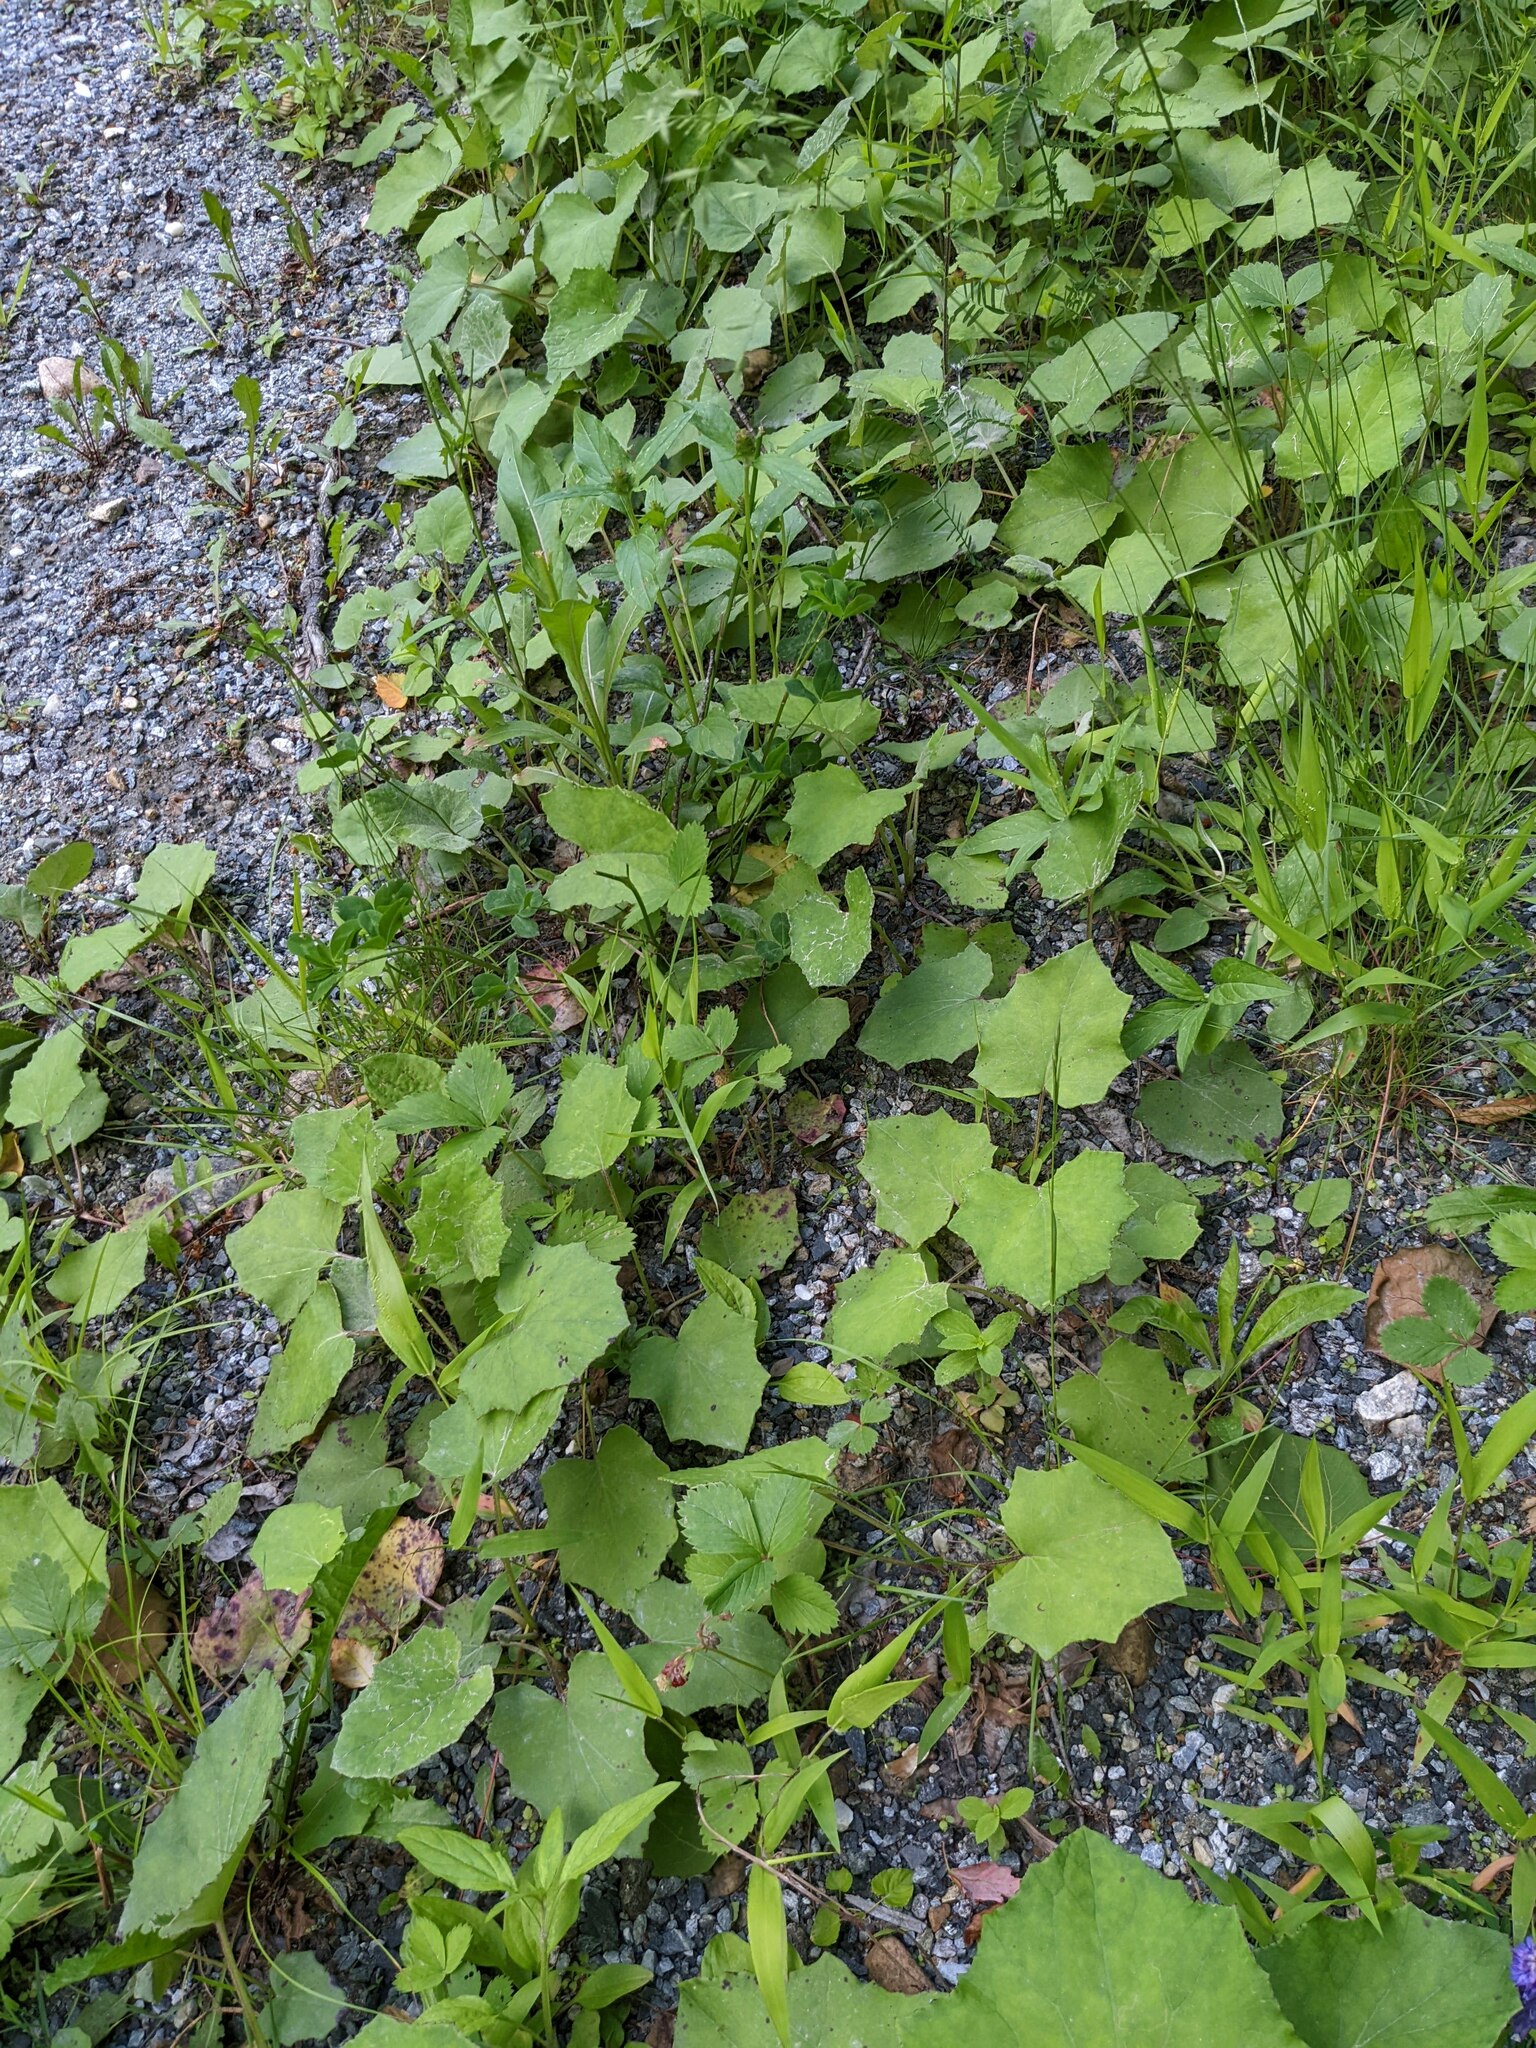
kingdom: Plantae
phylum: Tracheophyta
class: Magnoliopsida
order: Asterales
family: Asteraceae
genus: Tussilago
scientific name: Tussilago farfara
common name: Coltsfoot
